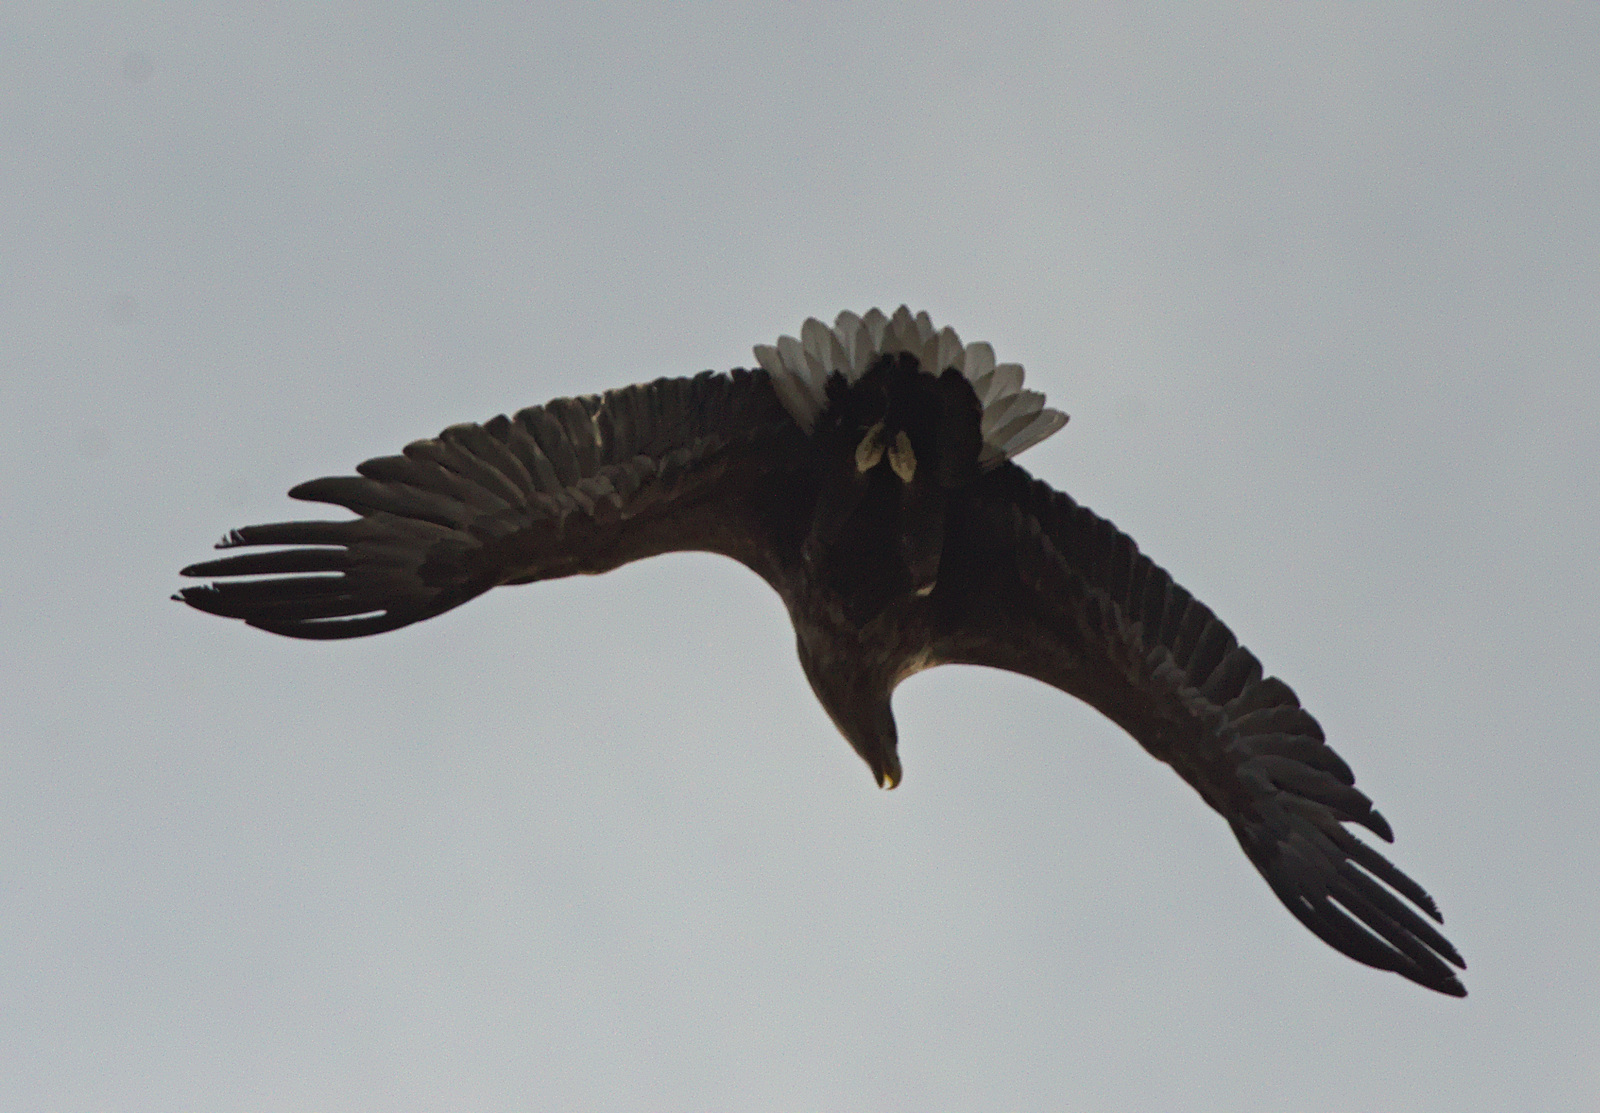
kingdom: Animalia
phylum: Chordata
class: Aves
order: Accipitriformes
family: Accipitridae
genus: Haliaeetus
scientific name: Haliaeetus albicilla
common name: White-tailed eagle
